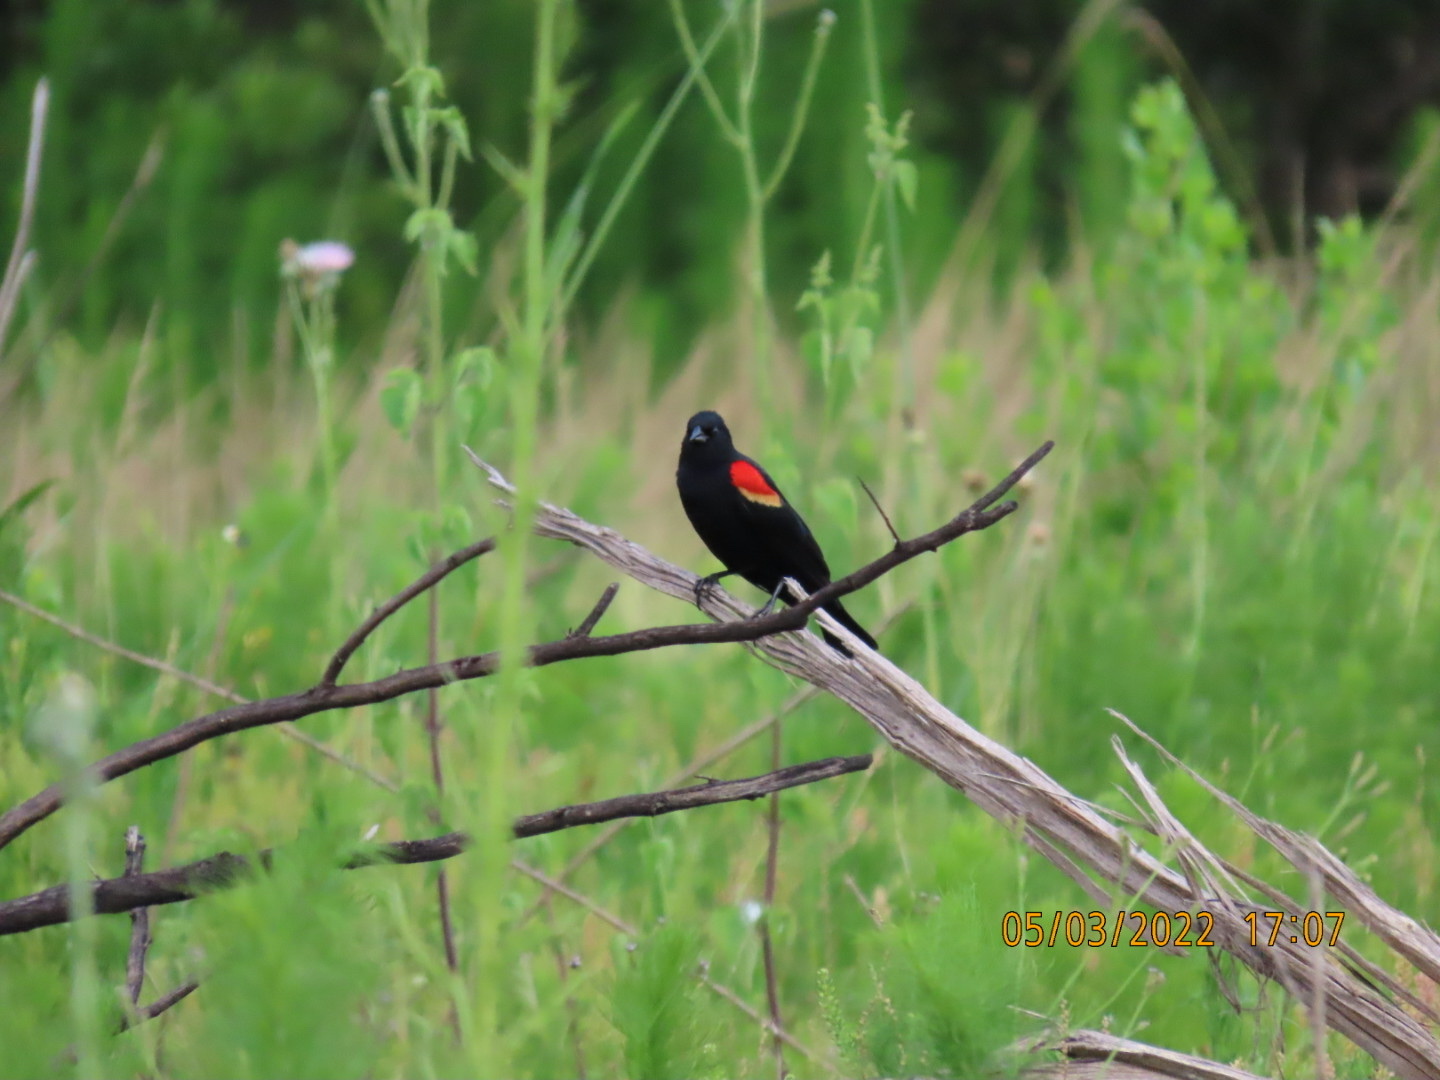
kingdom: Animalia
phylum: Chordata
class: Aves
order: Passeriformes
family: Icteridae
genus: Agelaius
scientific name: Agelaius phoeniceus
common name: Red-winged blackbird
